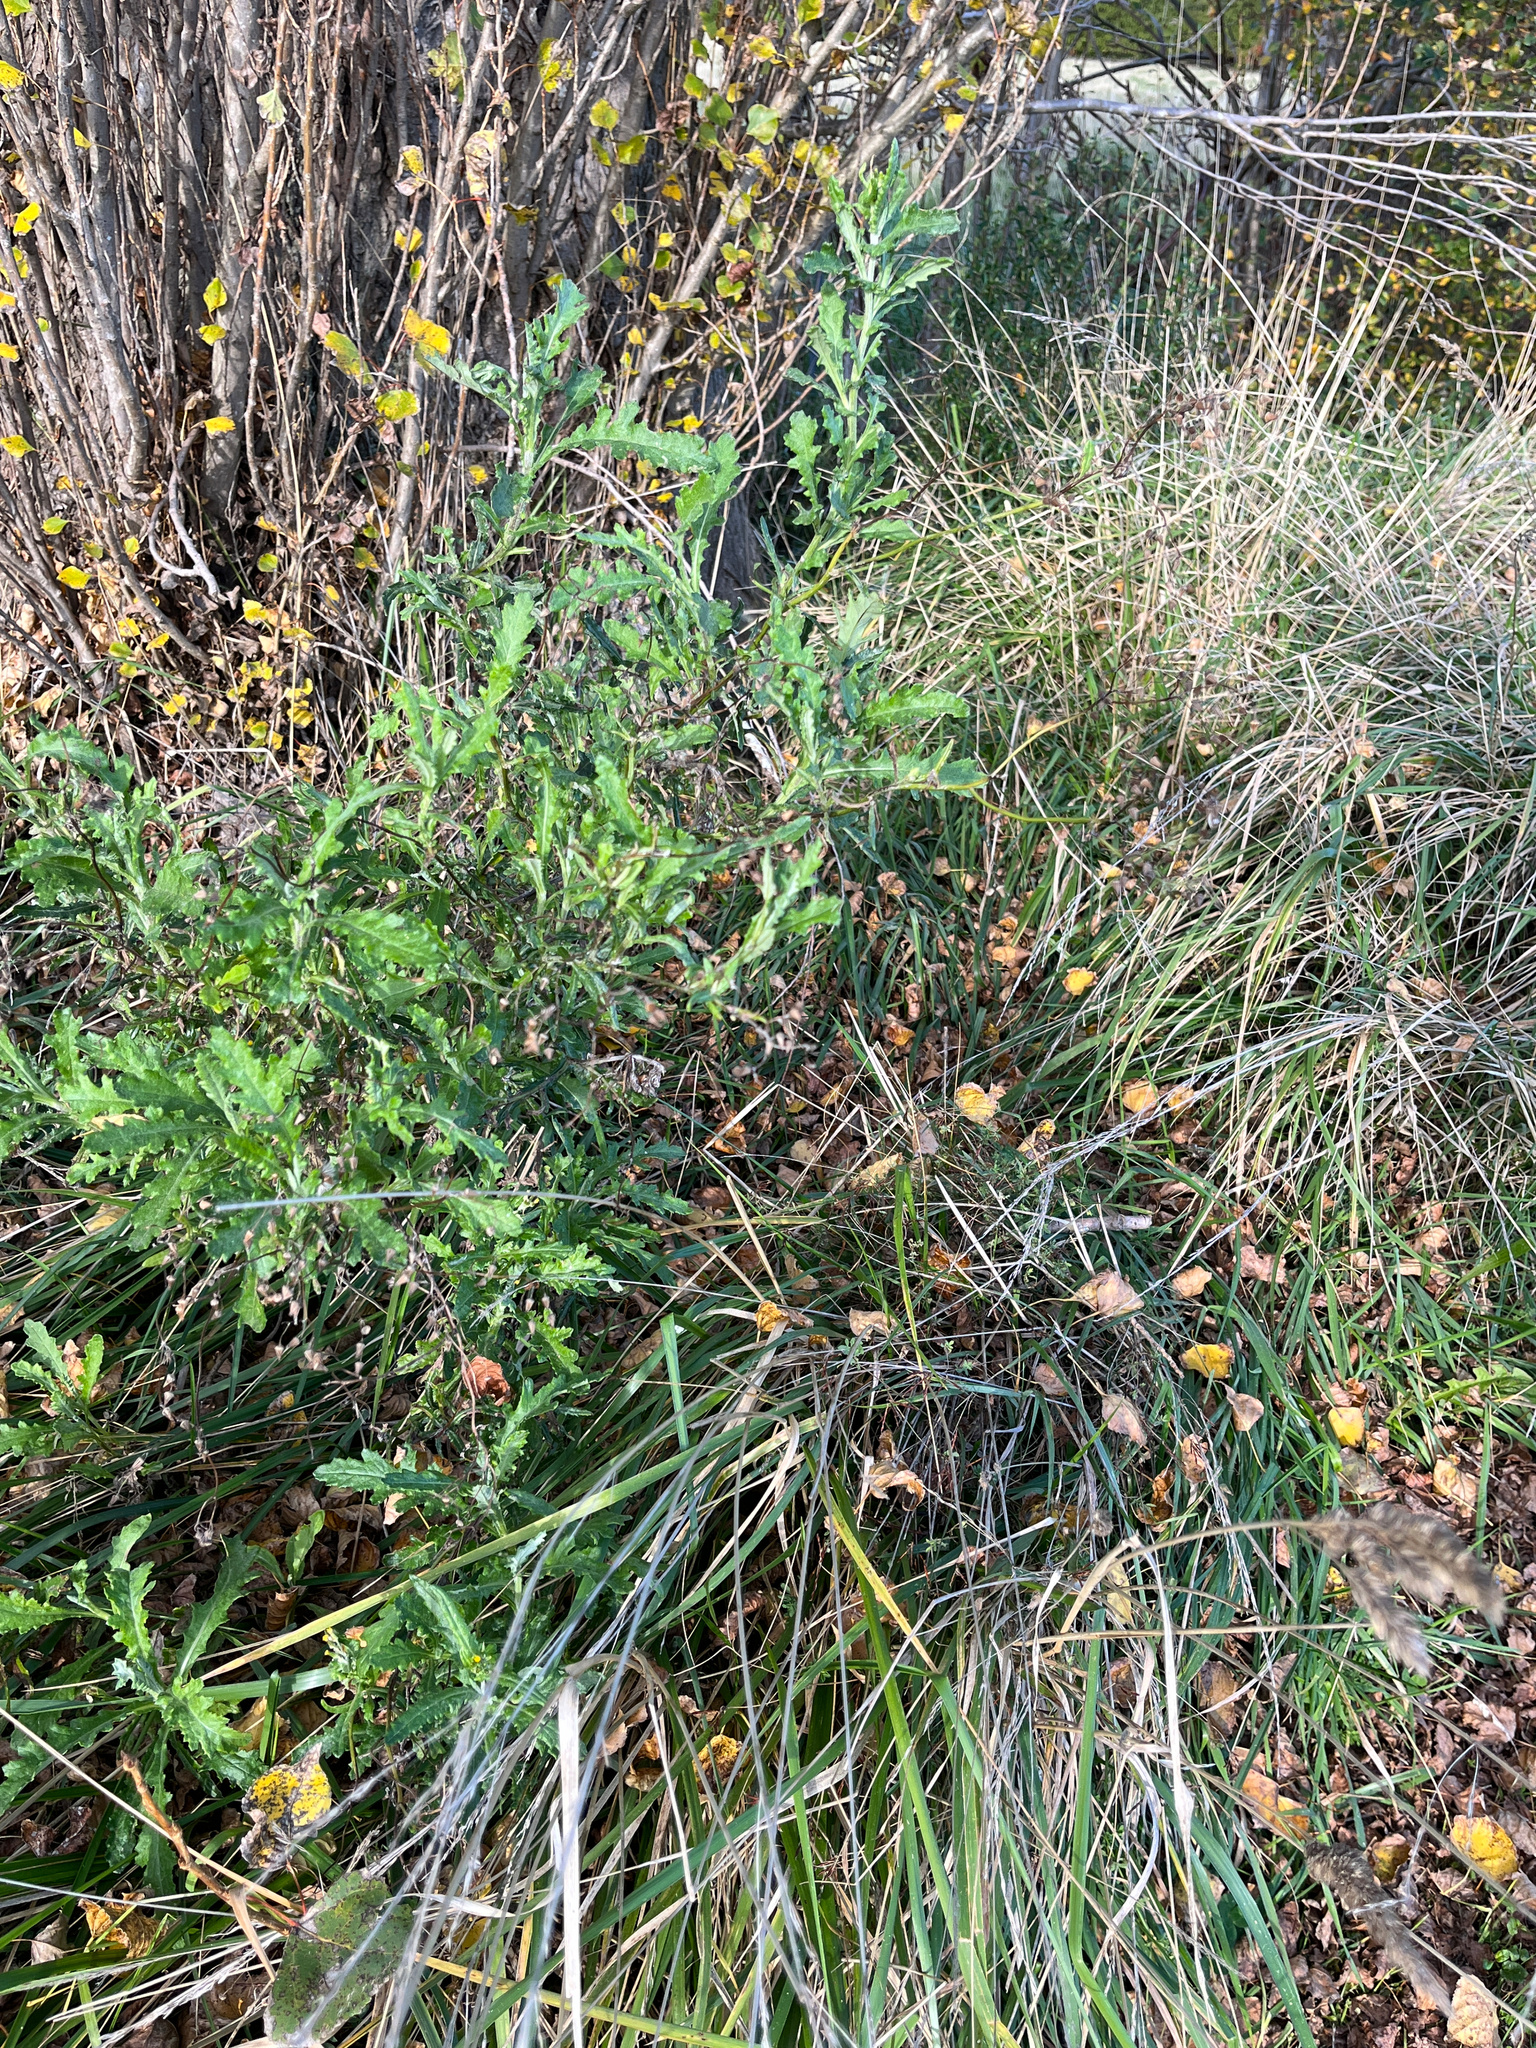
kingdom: Plantae
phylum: Tracheophyta
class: Magnoliopsida
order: Asterales
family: Asteraceae
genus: Senecio
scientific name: Senecio glomeratus
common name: Cutleaf burnweed
